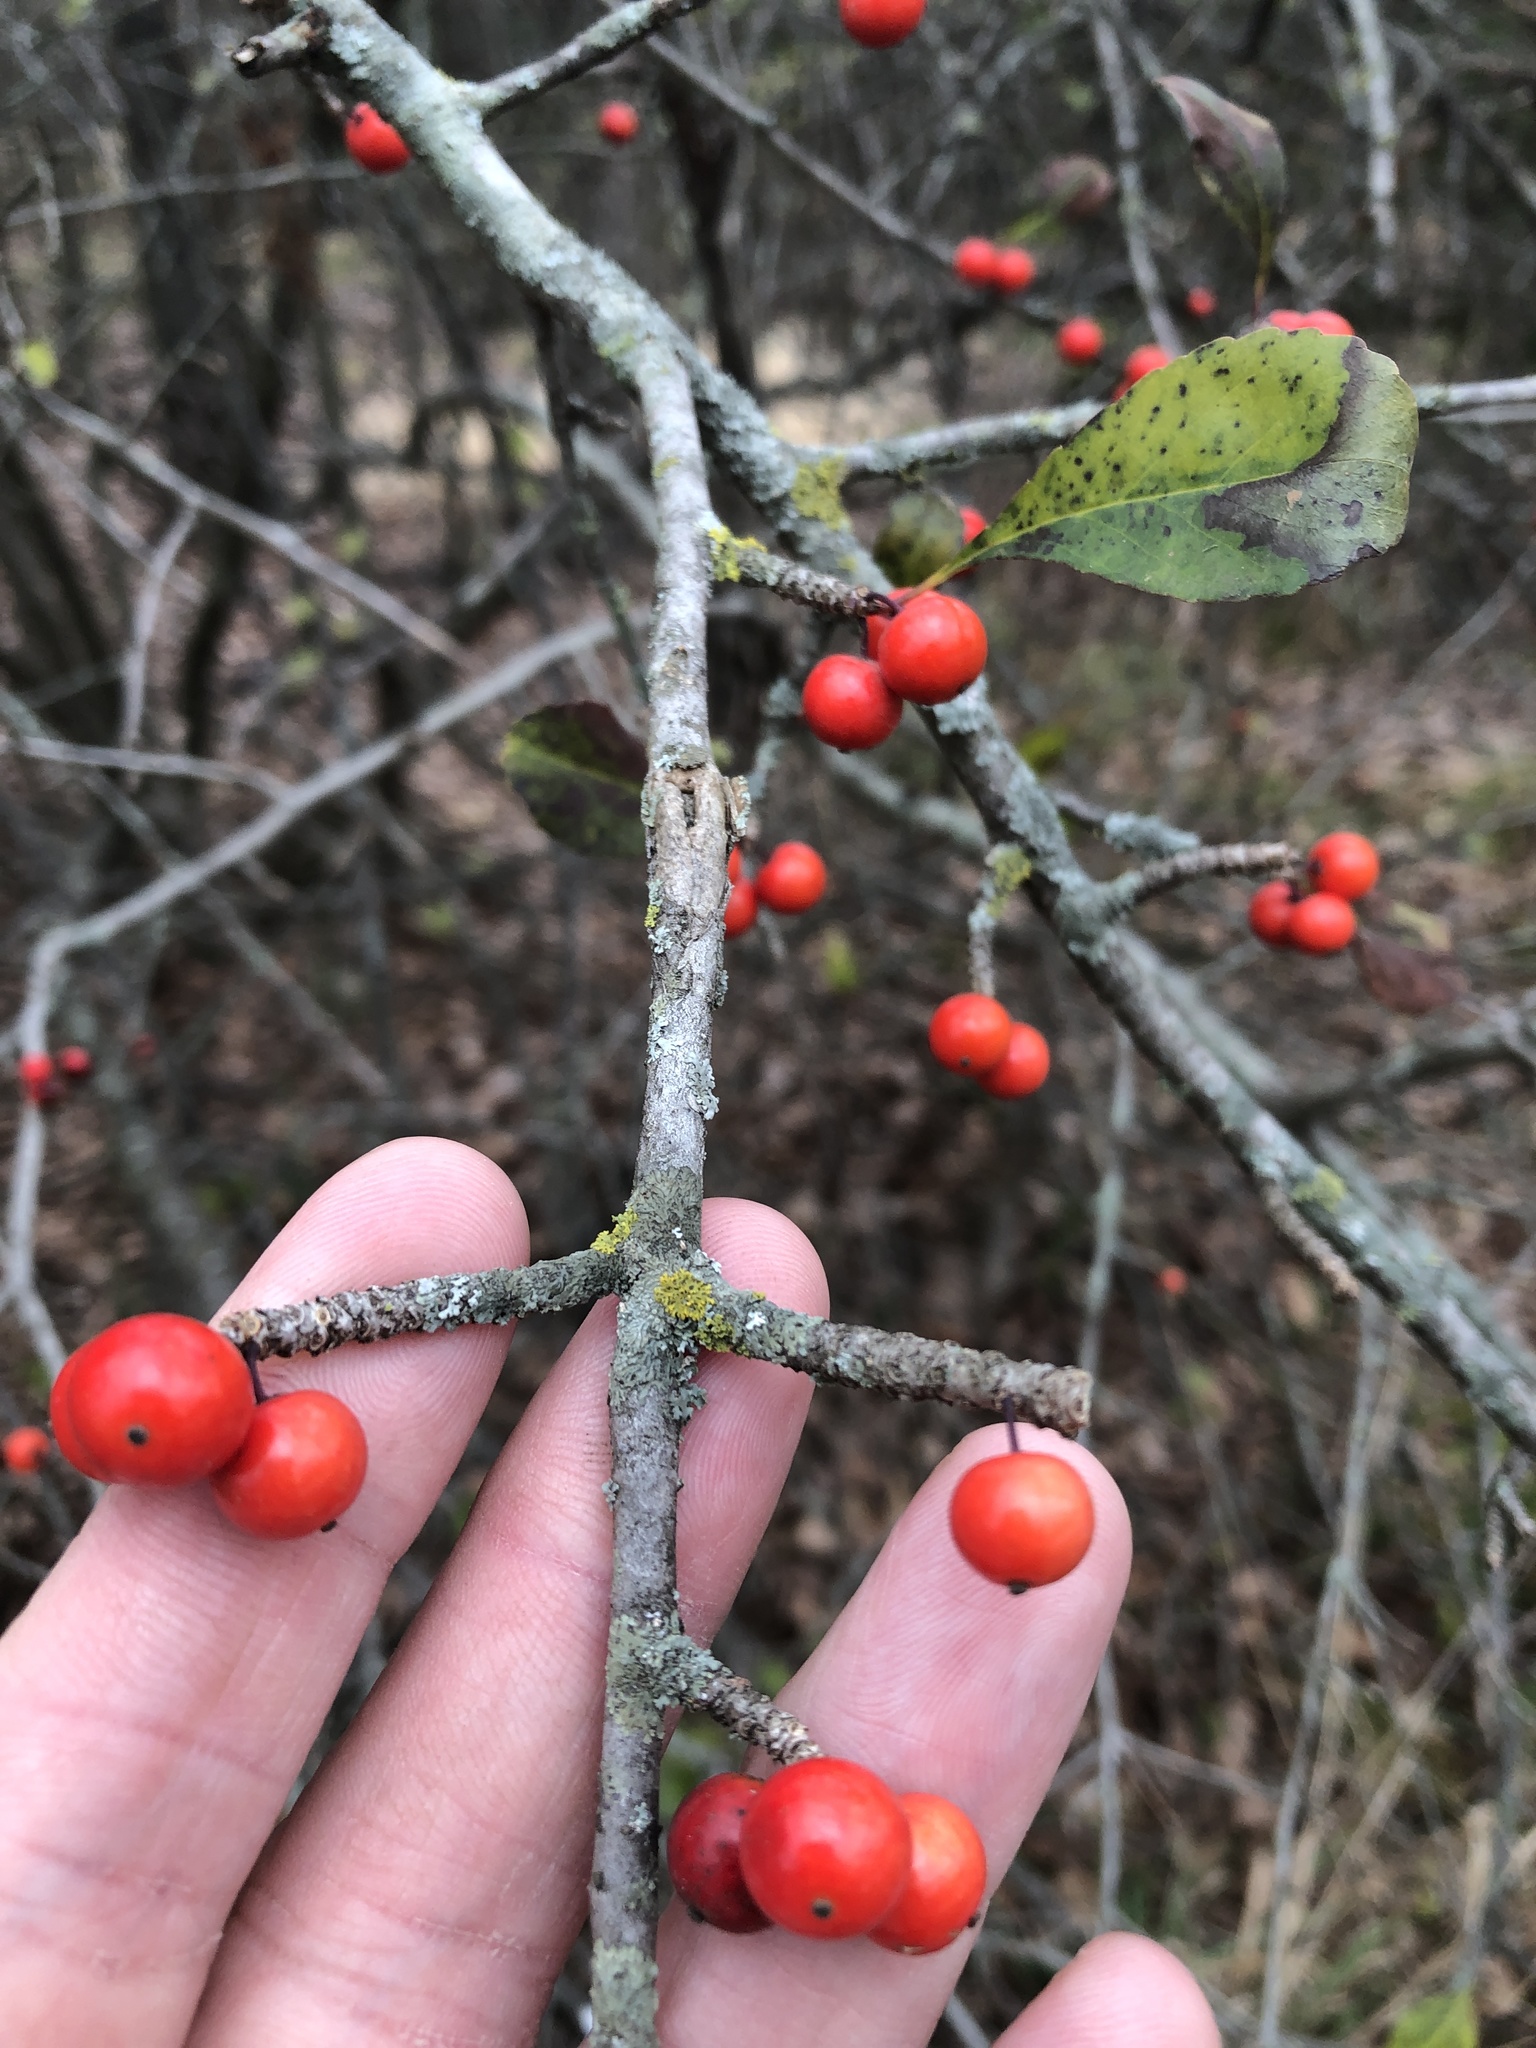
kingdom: Plantae
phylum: Tracheophyta
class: Magnoliopsida
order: Aquifoliales
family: Aquifoliaceae
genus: Ilex
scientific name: Ilex decidua
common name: Possum-haw
